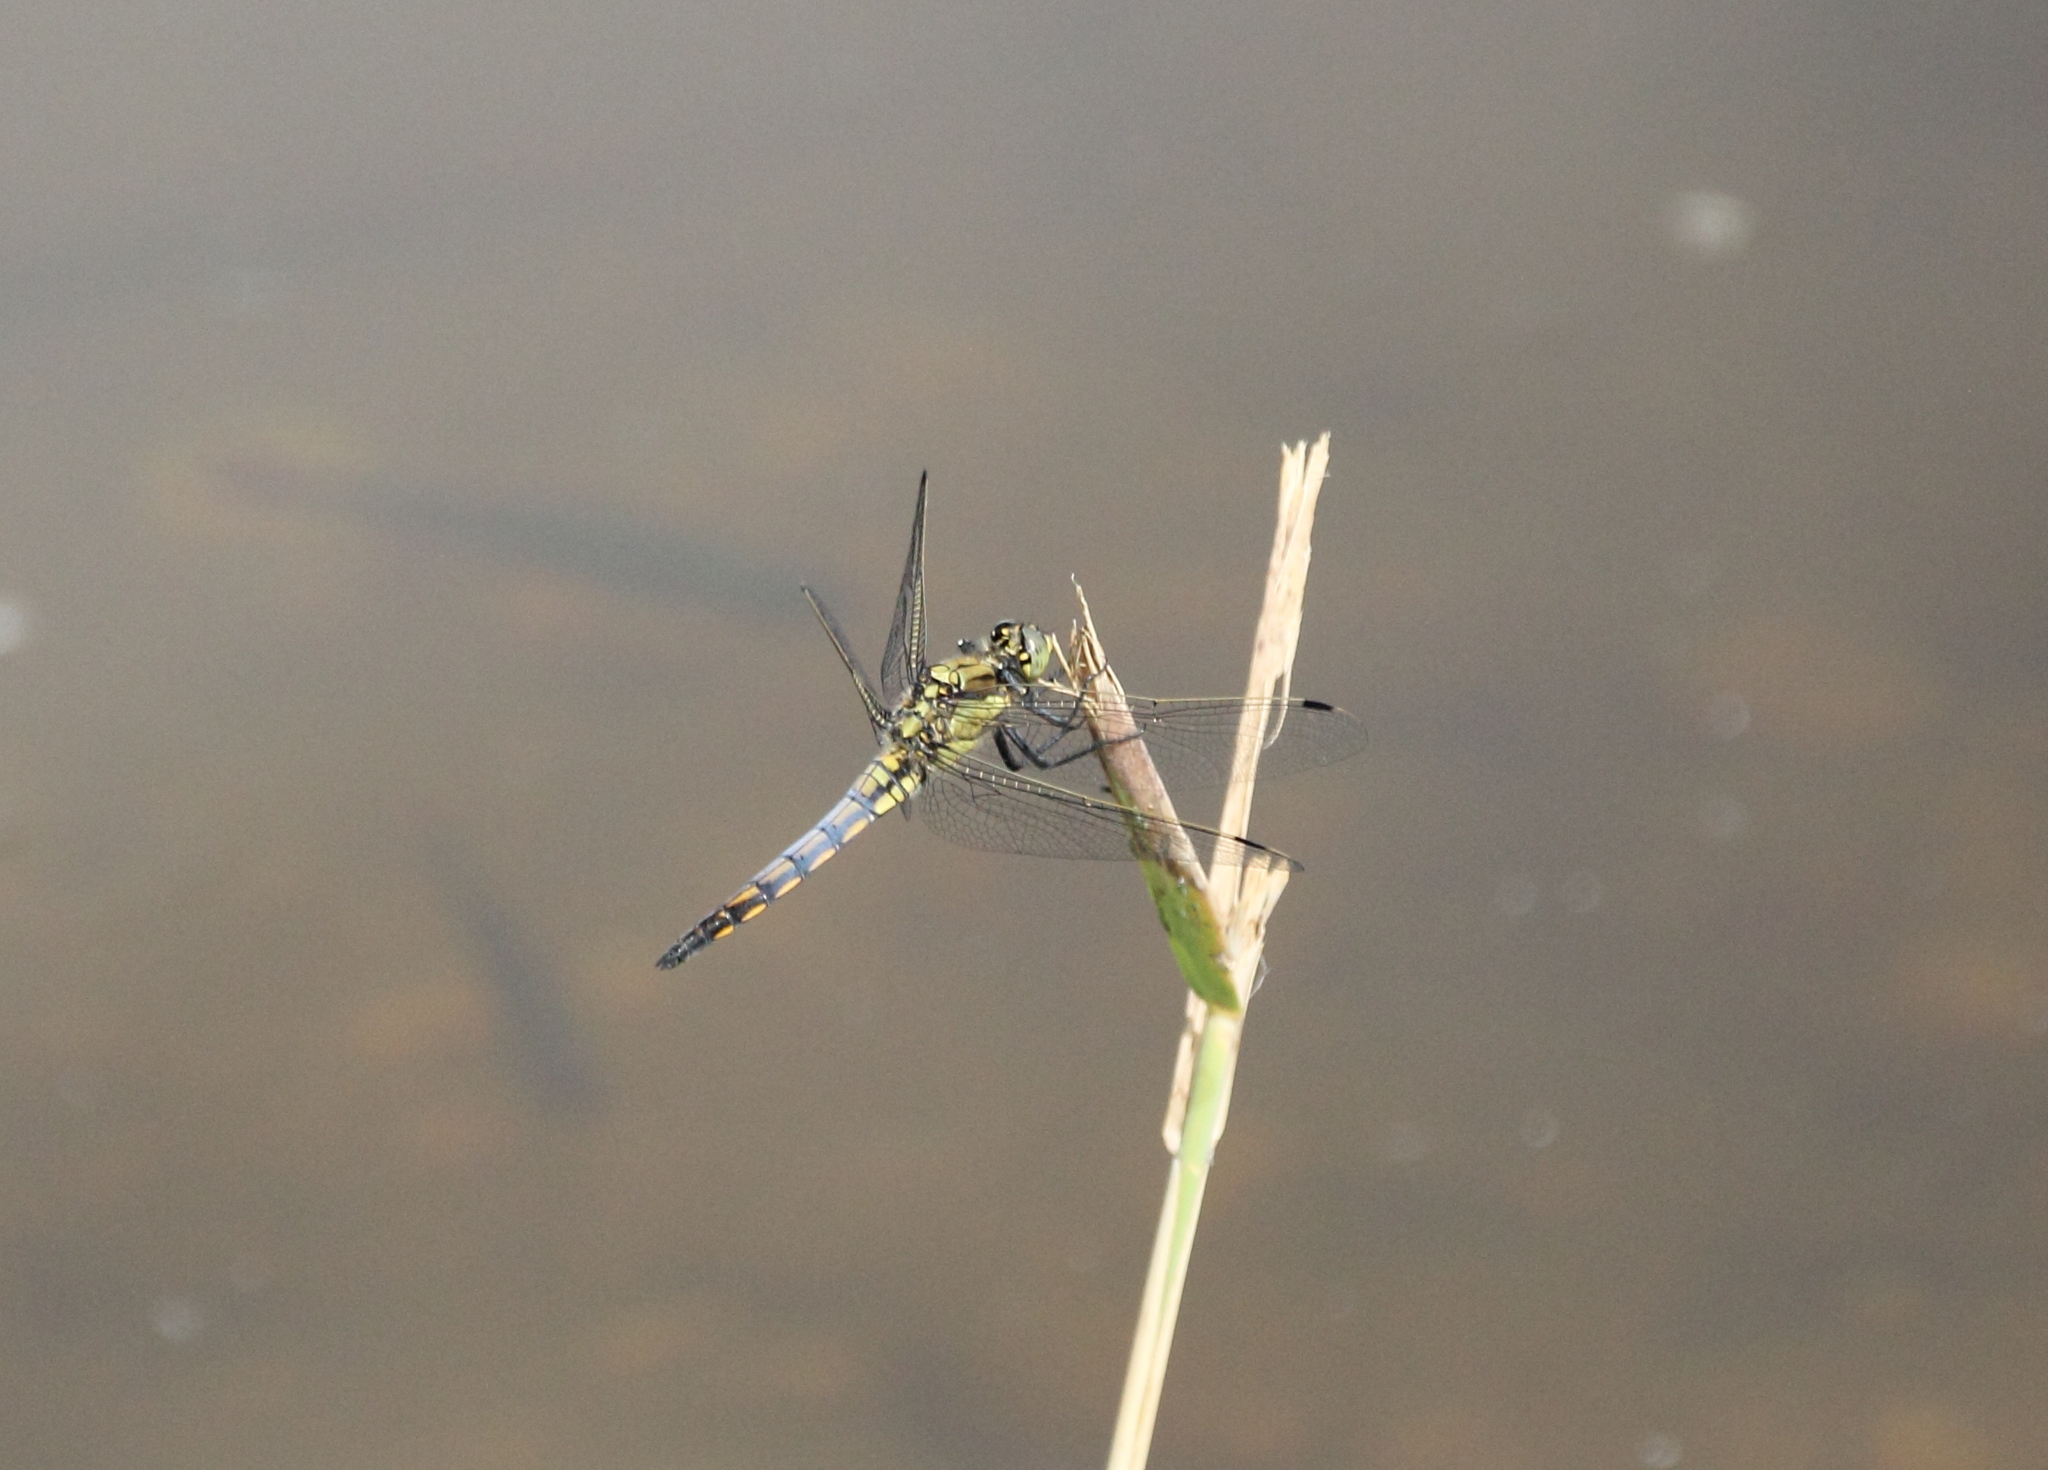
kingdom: Animalia
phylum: Arthropoda
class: Insecta
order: Odonata
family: Libellulidae
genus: Orthetrum
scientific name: Orthetrum cancellatum
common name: Black-tailed skimmer
